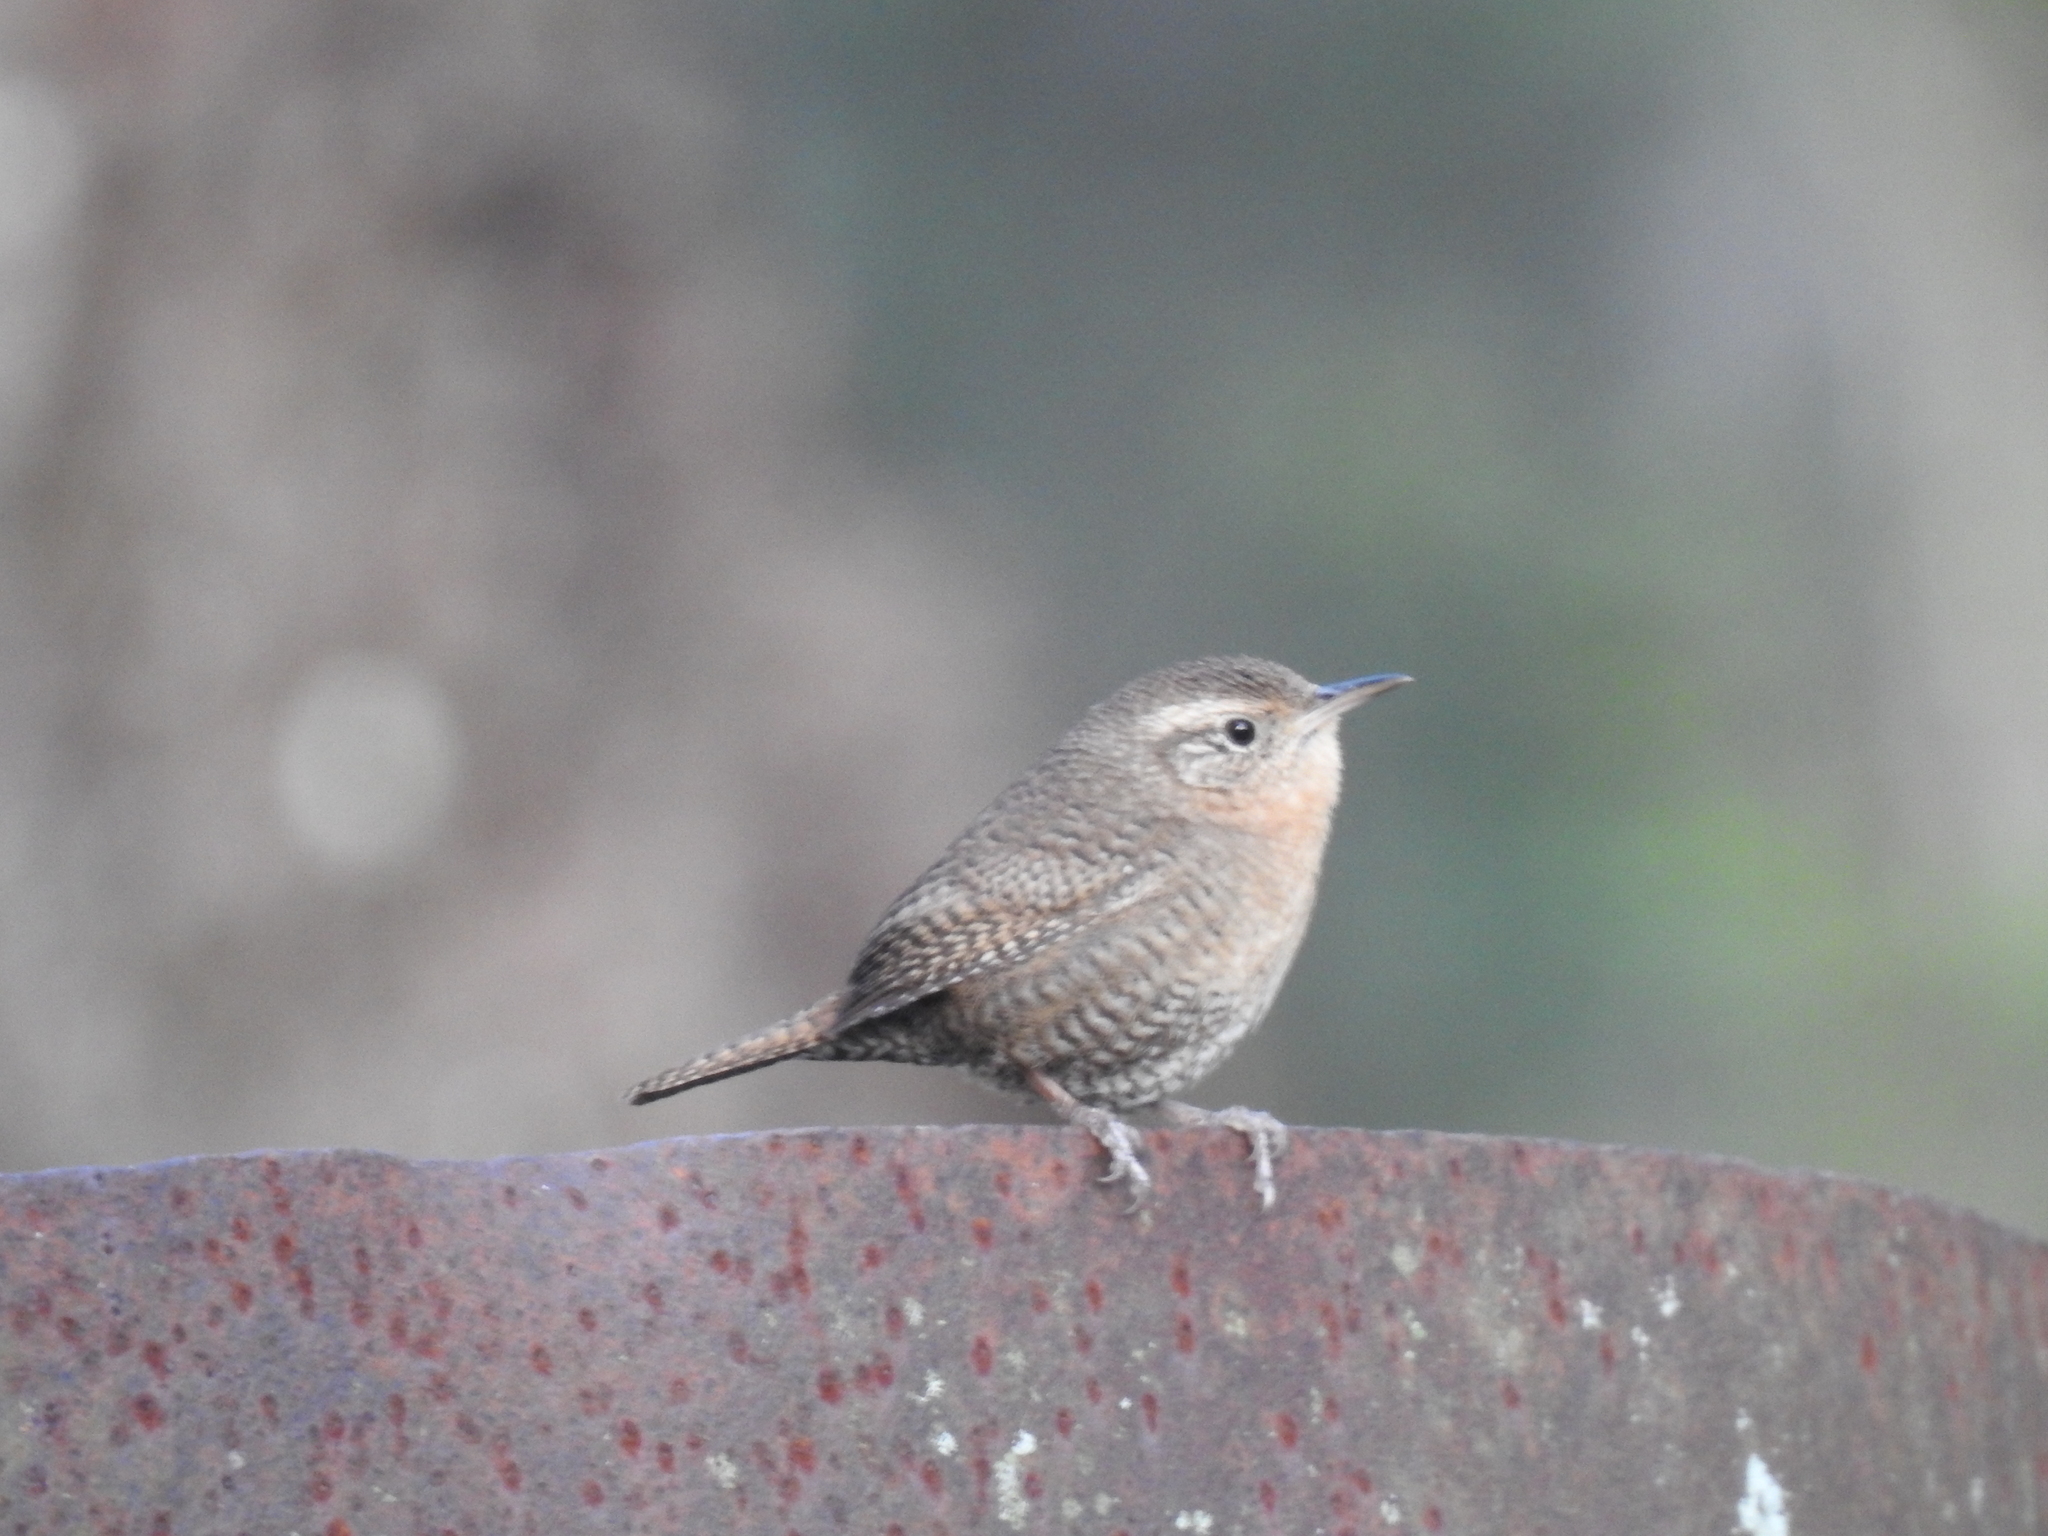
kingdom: Animalia
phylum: Chordata
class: Aves
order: Passeriformes
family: Troglodytidae
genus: Troglodytes
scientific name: Troglodytes aedon
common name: House wren
